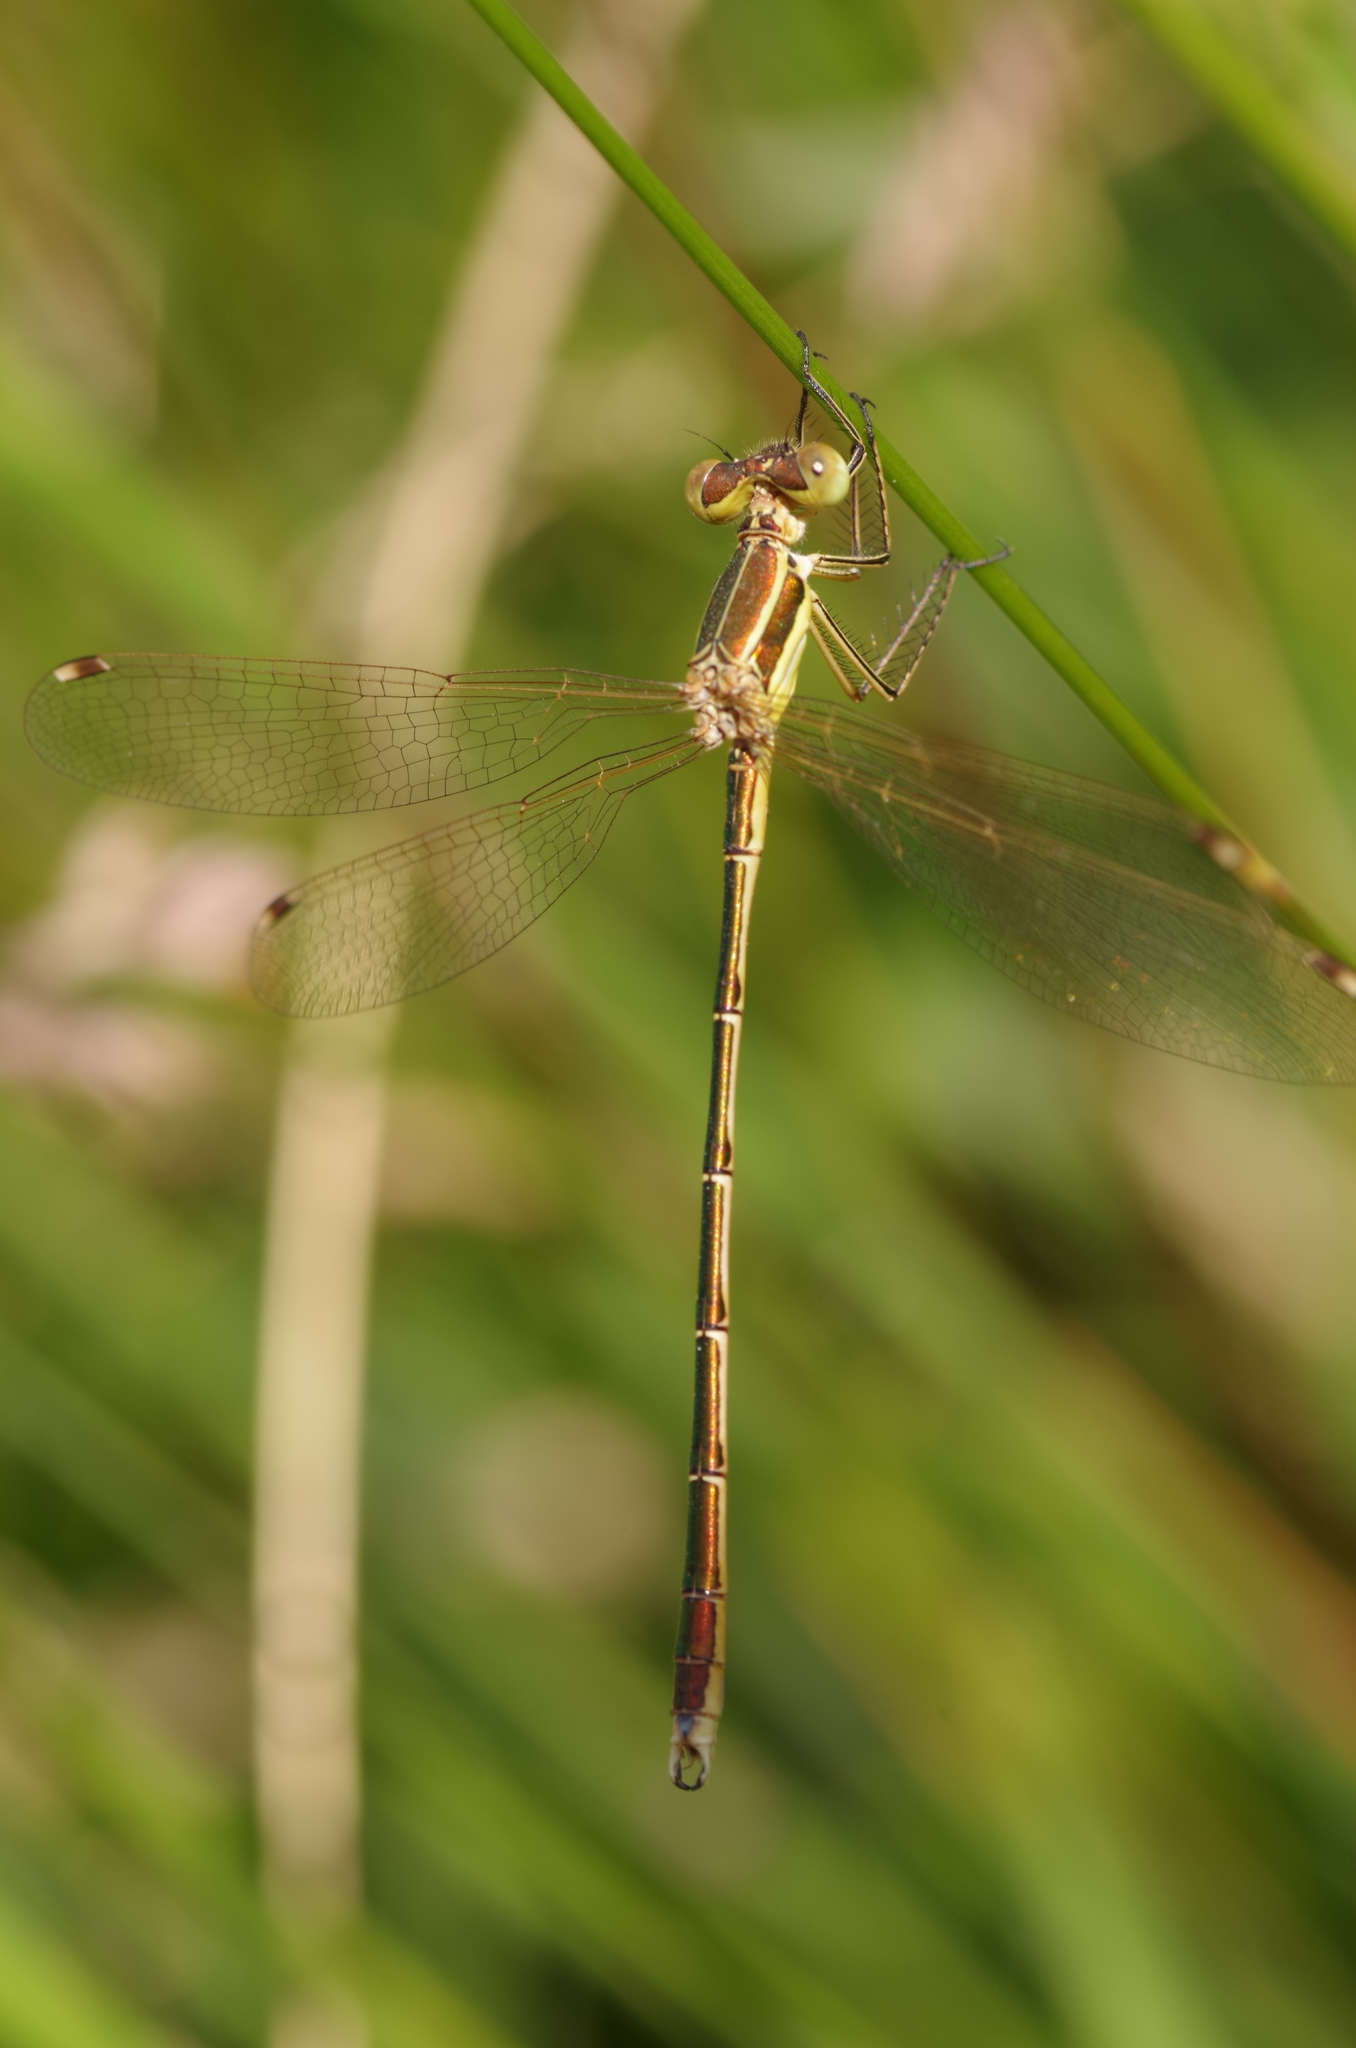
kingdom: Animalia
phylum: Arthropoda
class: Insecta
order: Odonata
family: Lestidae
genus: Lestes
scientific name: Lestes barbarus
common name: Migrant spreadwing
